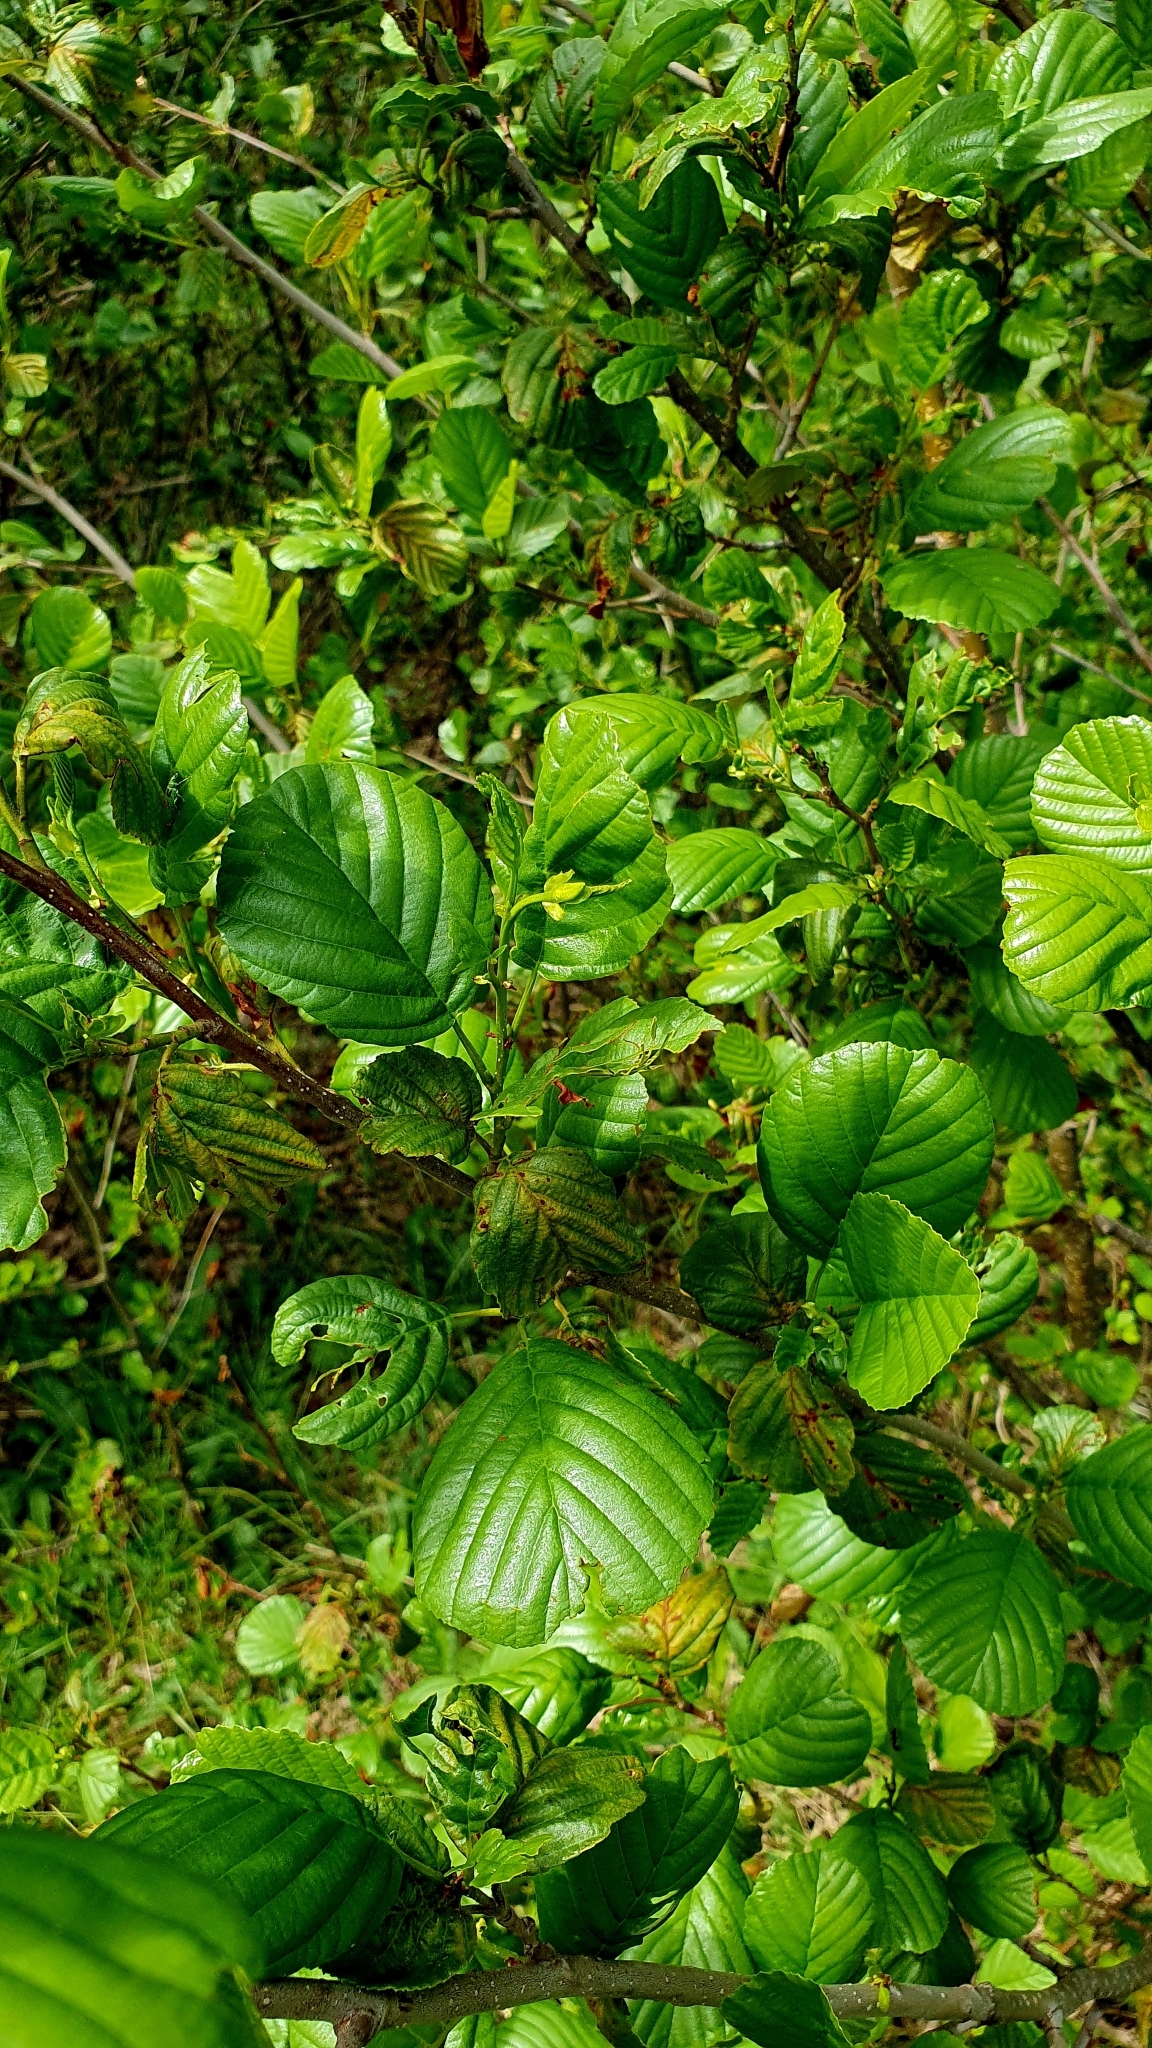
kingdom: Plantae
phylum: Tracheophyta
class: Magnoliopsida
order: Fagales
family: Betulaceae
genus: Alnus
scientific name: Alnus glutinosa
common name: Black alder
